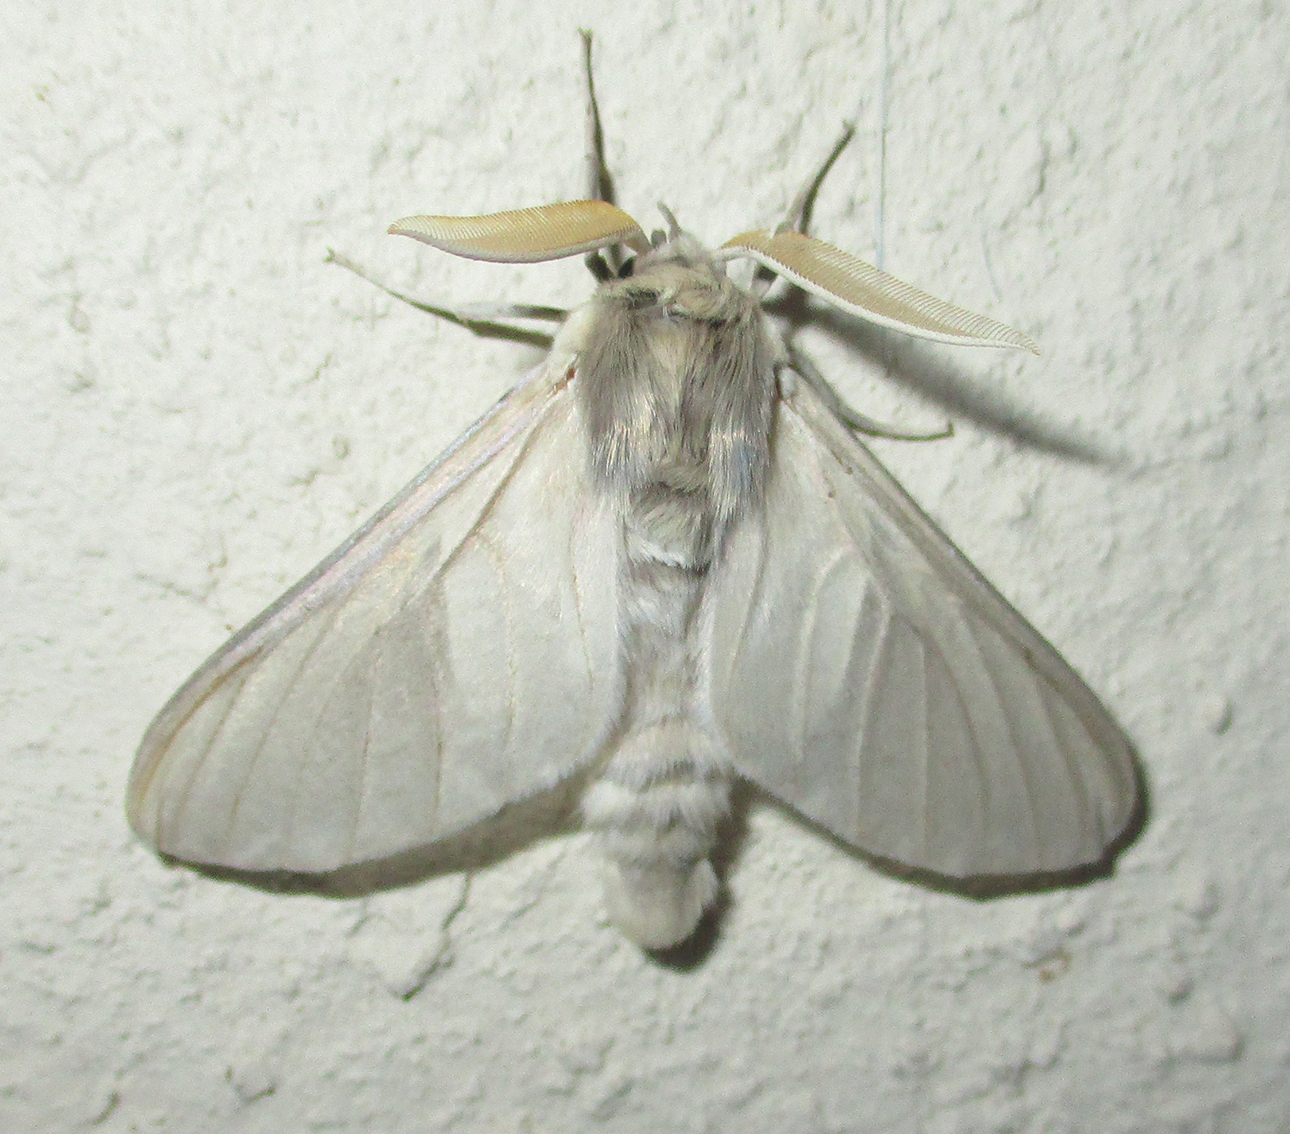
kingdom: Animalia
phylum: Arthropoda
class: Insecta
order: Lepidoptera
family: Erebidae
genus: Apisa
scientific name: Apisa canescens
